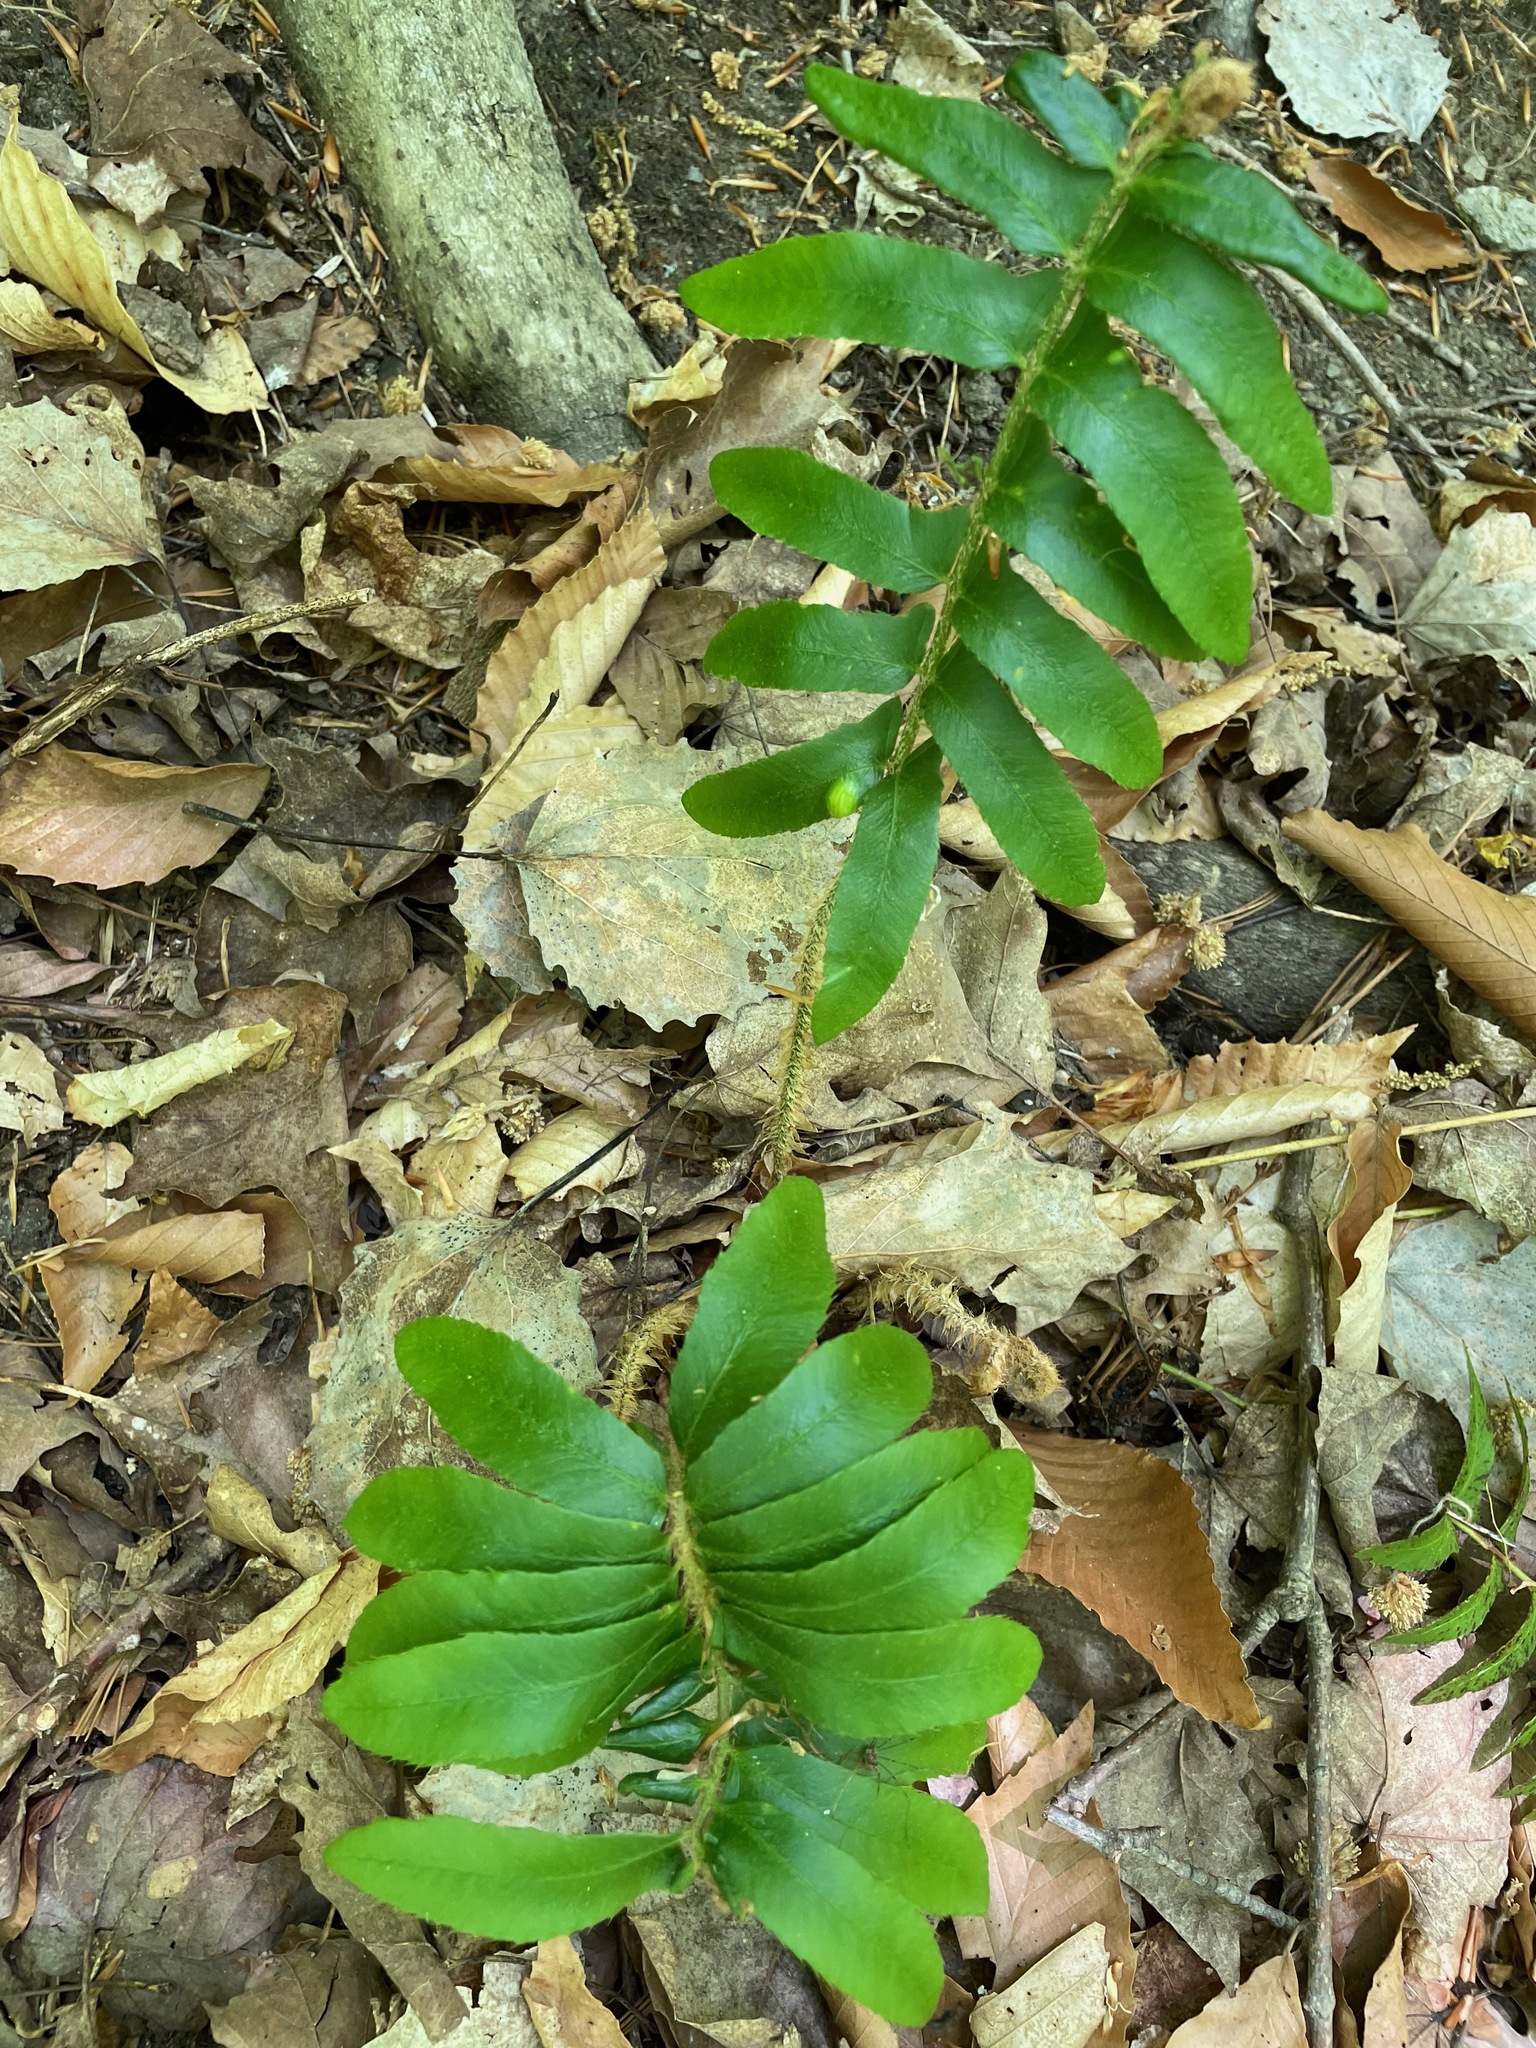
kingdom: Plantae
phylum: Tracheophyta
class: Polypodiopsida
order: Polypodiales
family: Dryopteridaceae
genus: Polystichum
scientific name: Polystichum acrostichoides
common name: Christmas fern
